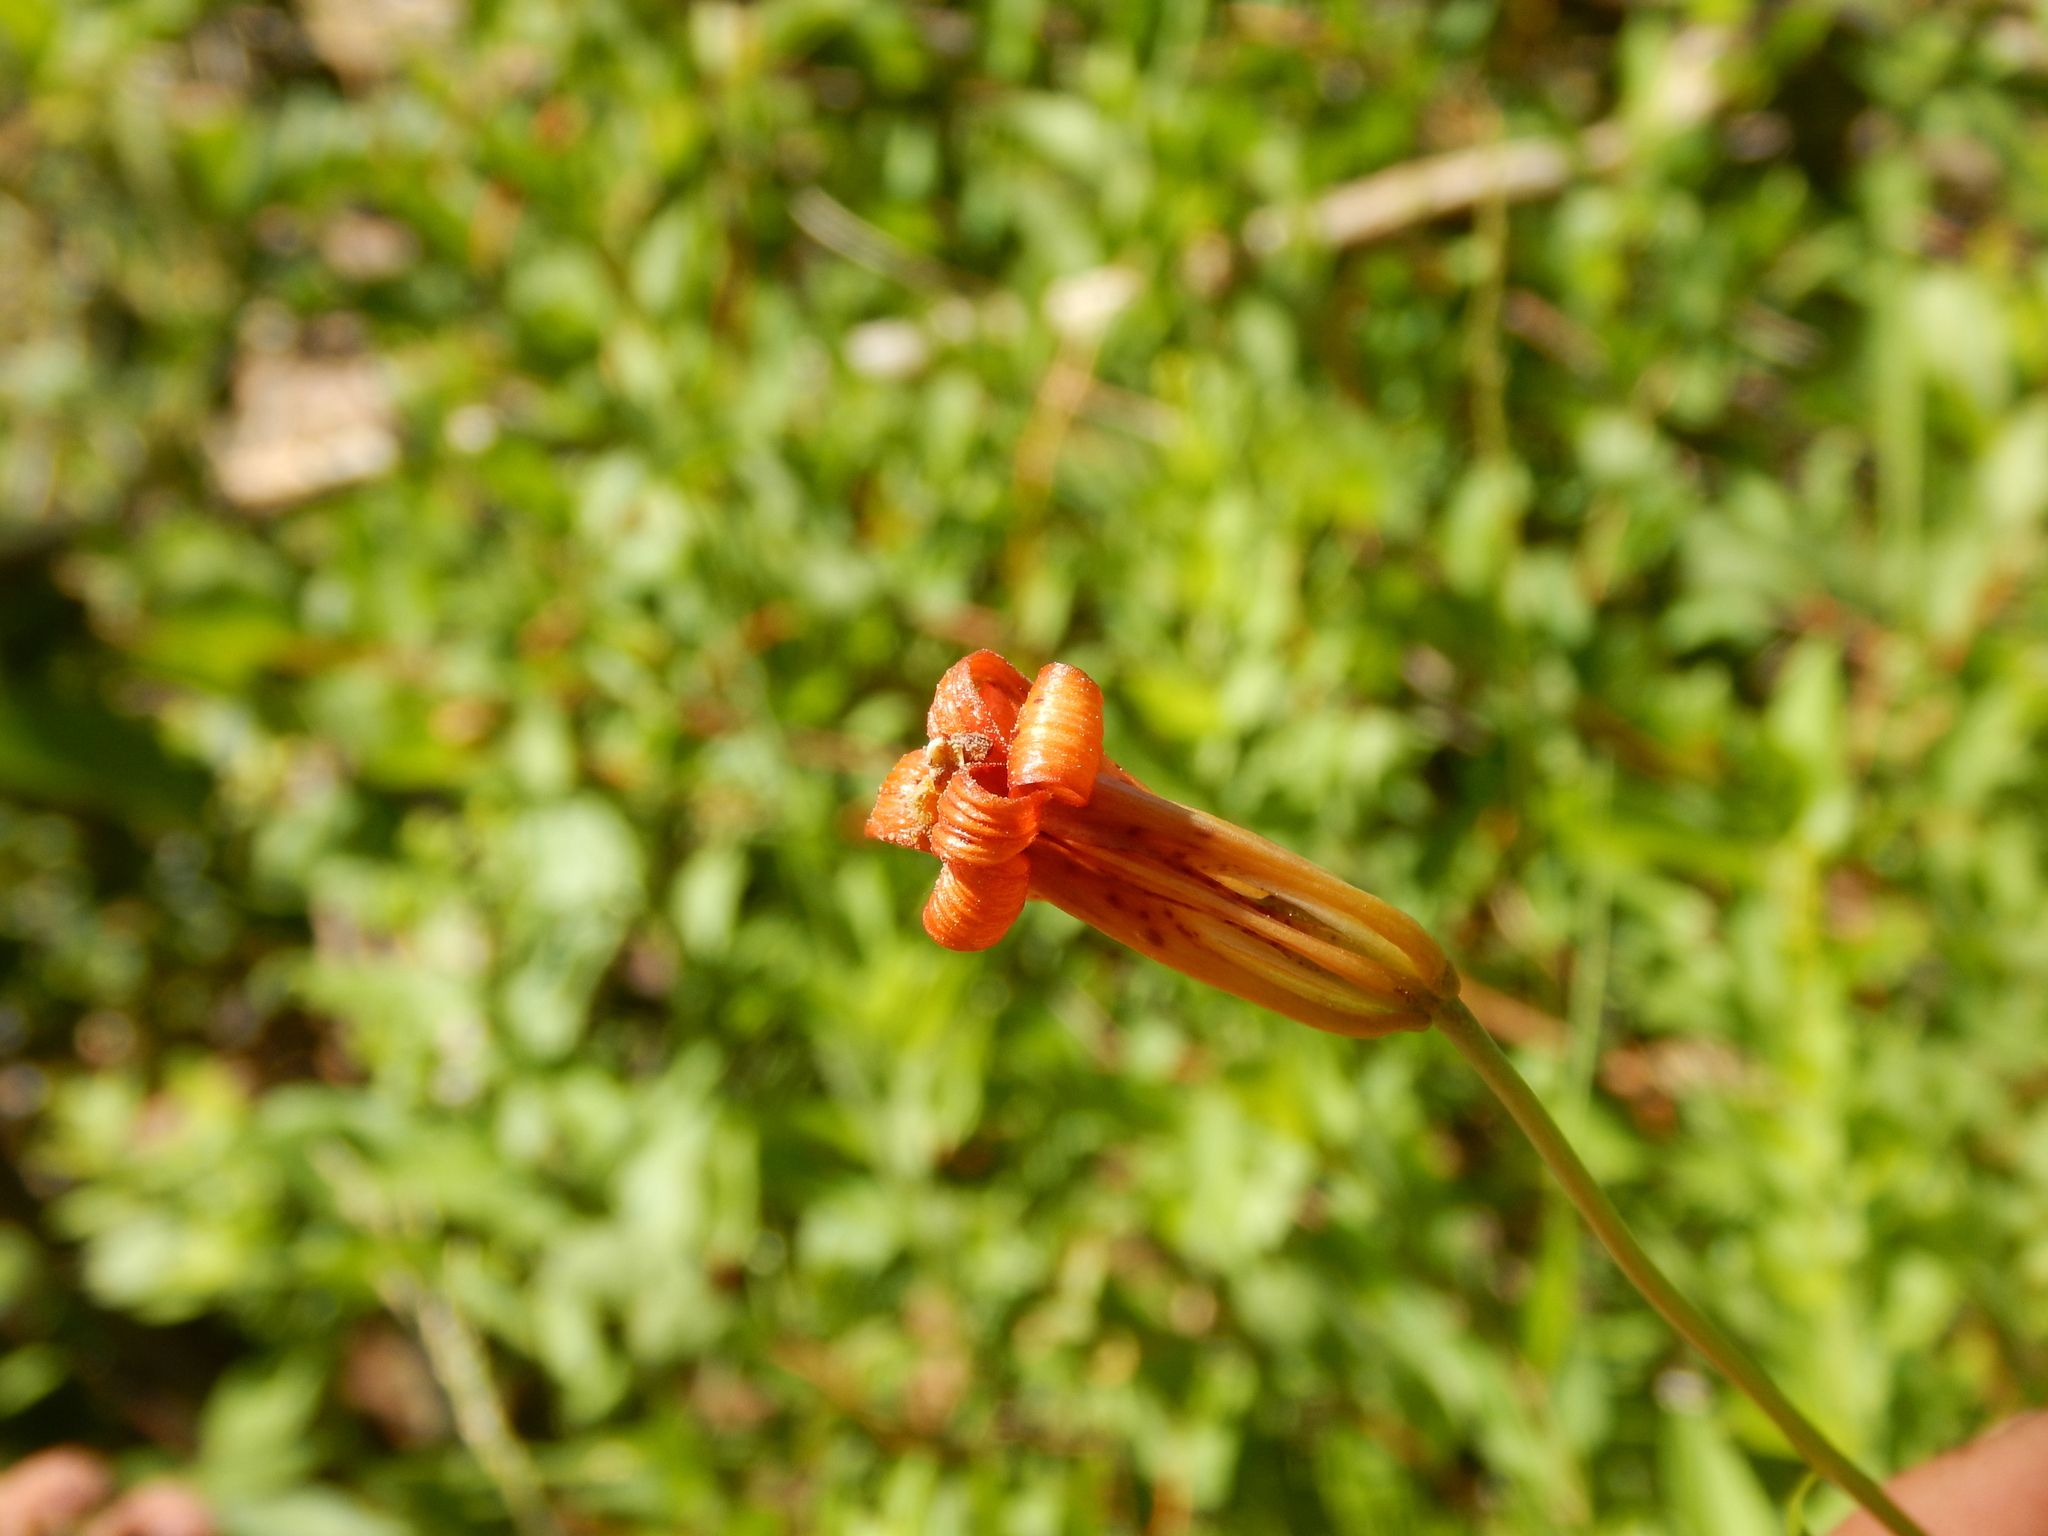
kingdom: Plantae
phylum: Tracheophyta
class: Liliopsida
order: Liliales
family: Liliaceae
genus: Lilium
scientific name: Lilium parvum
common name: Alpine lily
